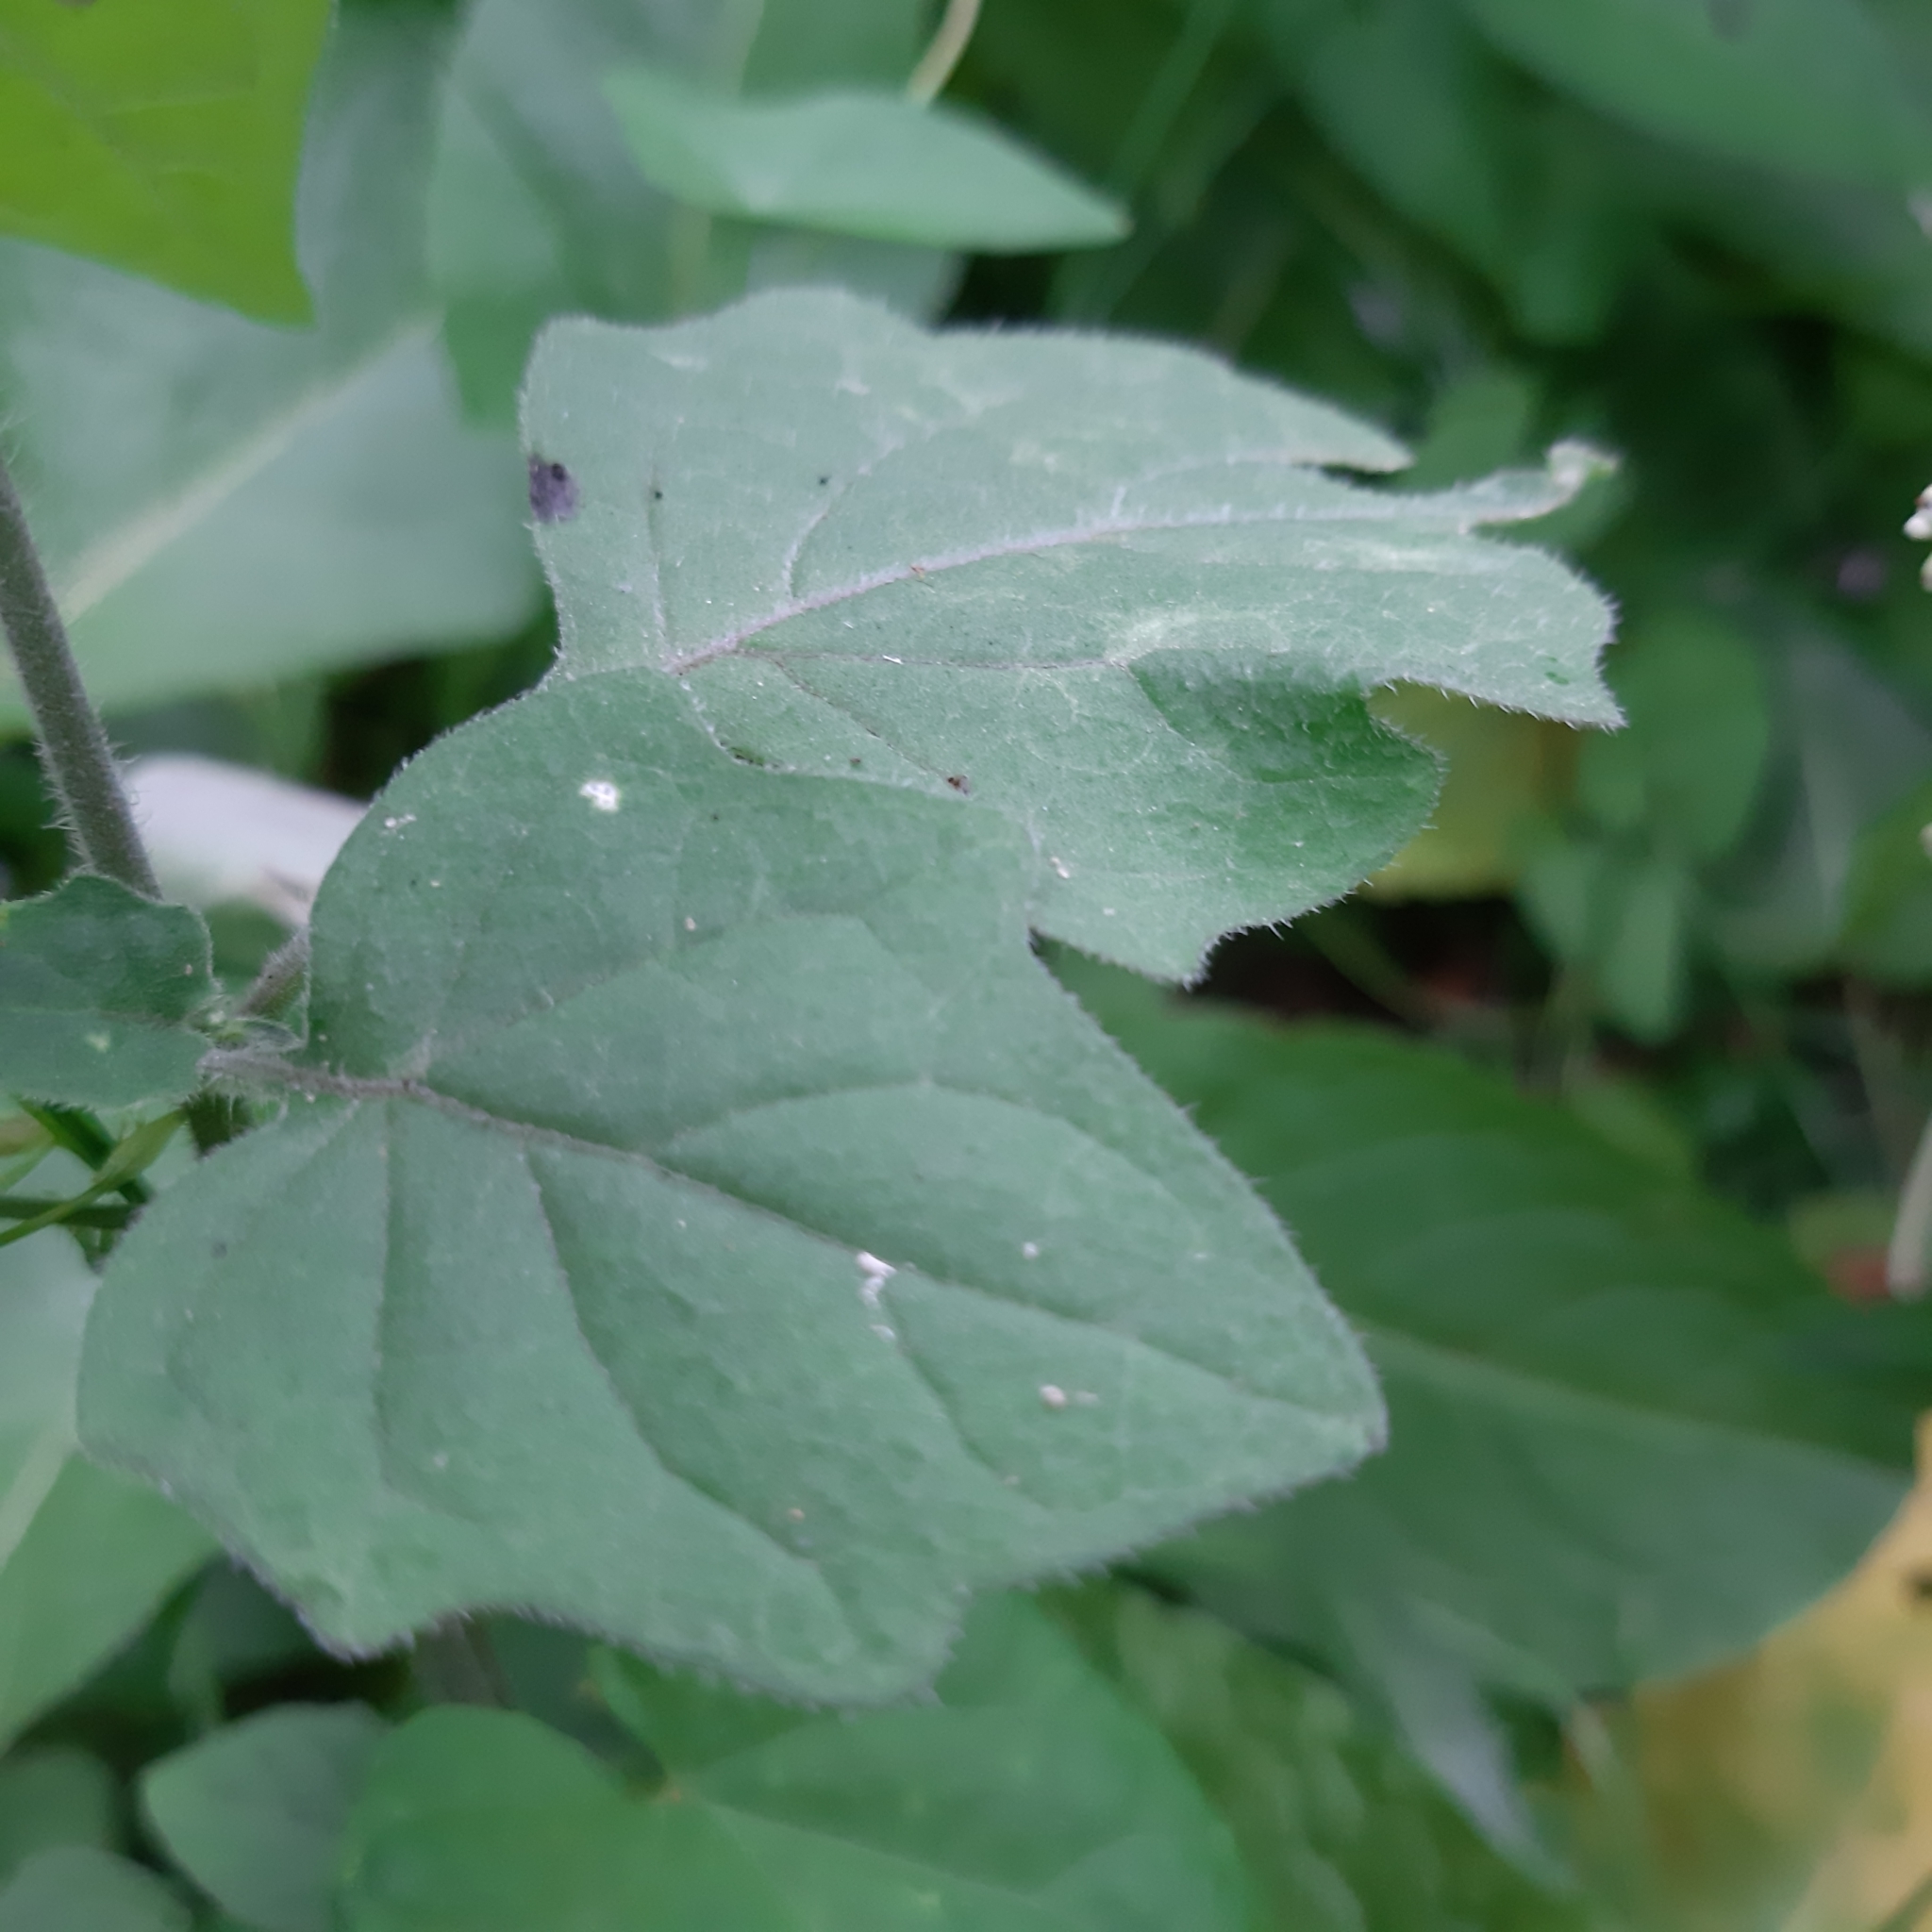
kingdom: Plantae
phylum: Tracheophyta
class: Magnoliopsida
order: Solanales
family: Solanaceae
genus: Solanum
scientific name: Solanum nigrum
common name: Black nightshade
